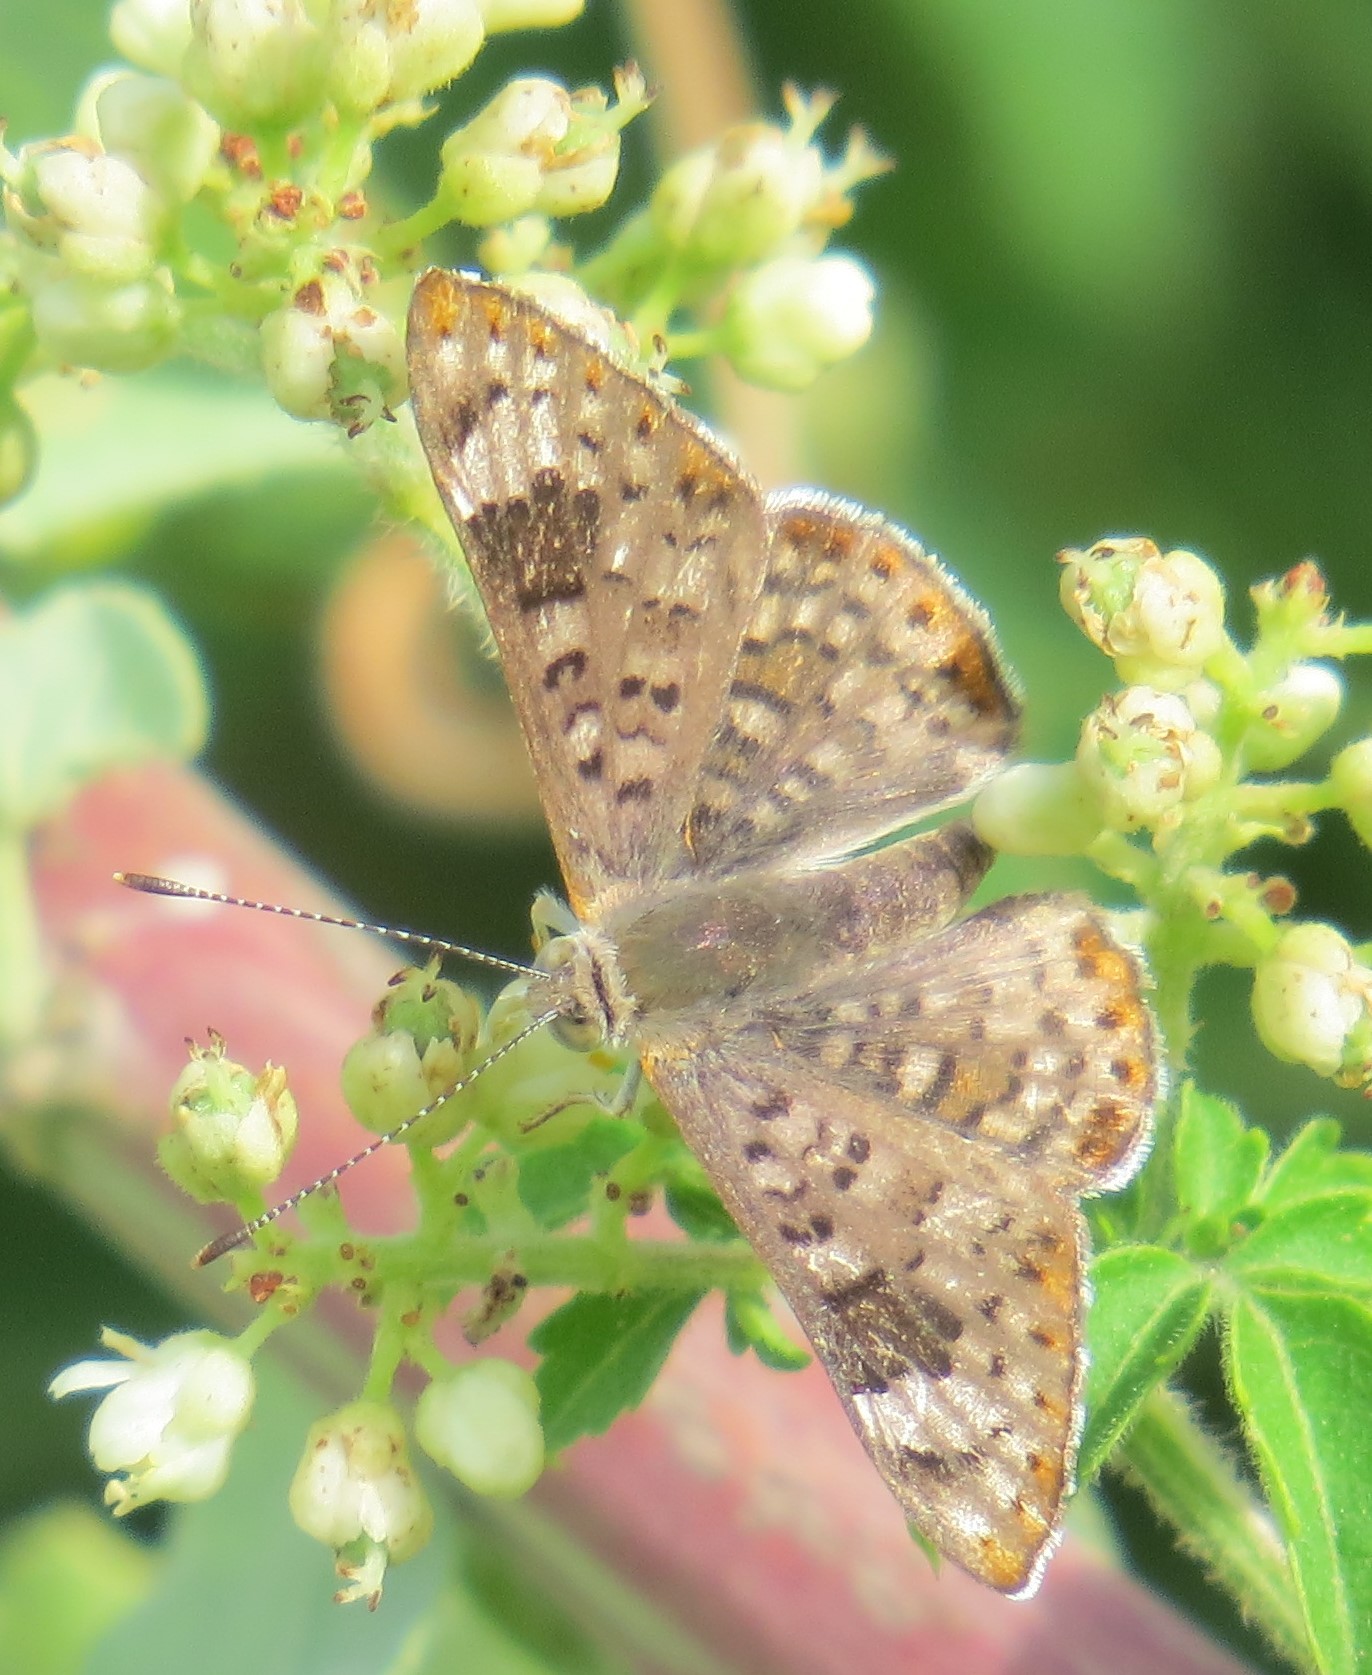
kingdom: Animalia
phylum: Arthropoda
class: Insecta
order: Lepidoptera
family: Riodinidae
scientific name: Riodinidae
